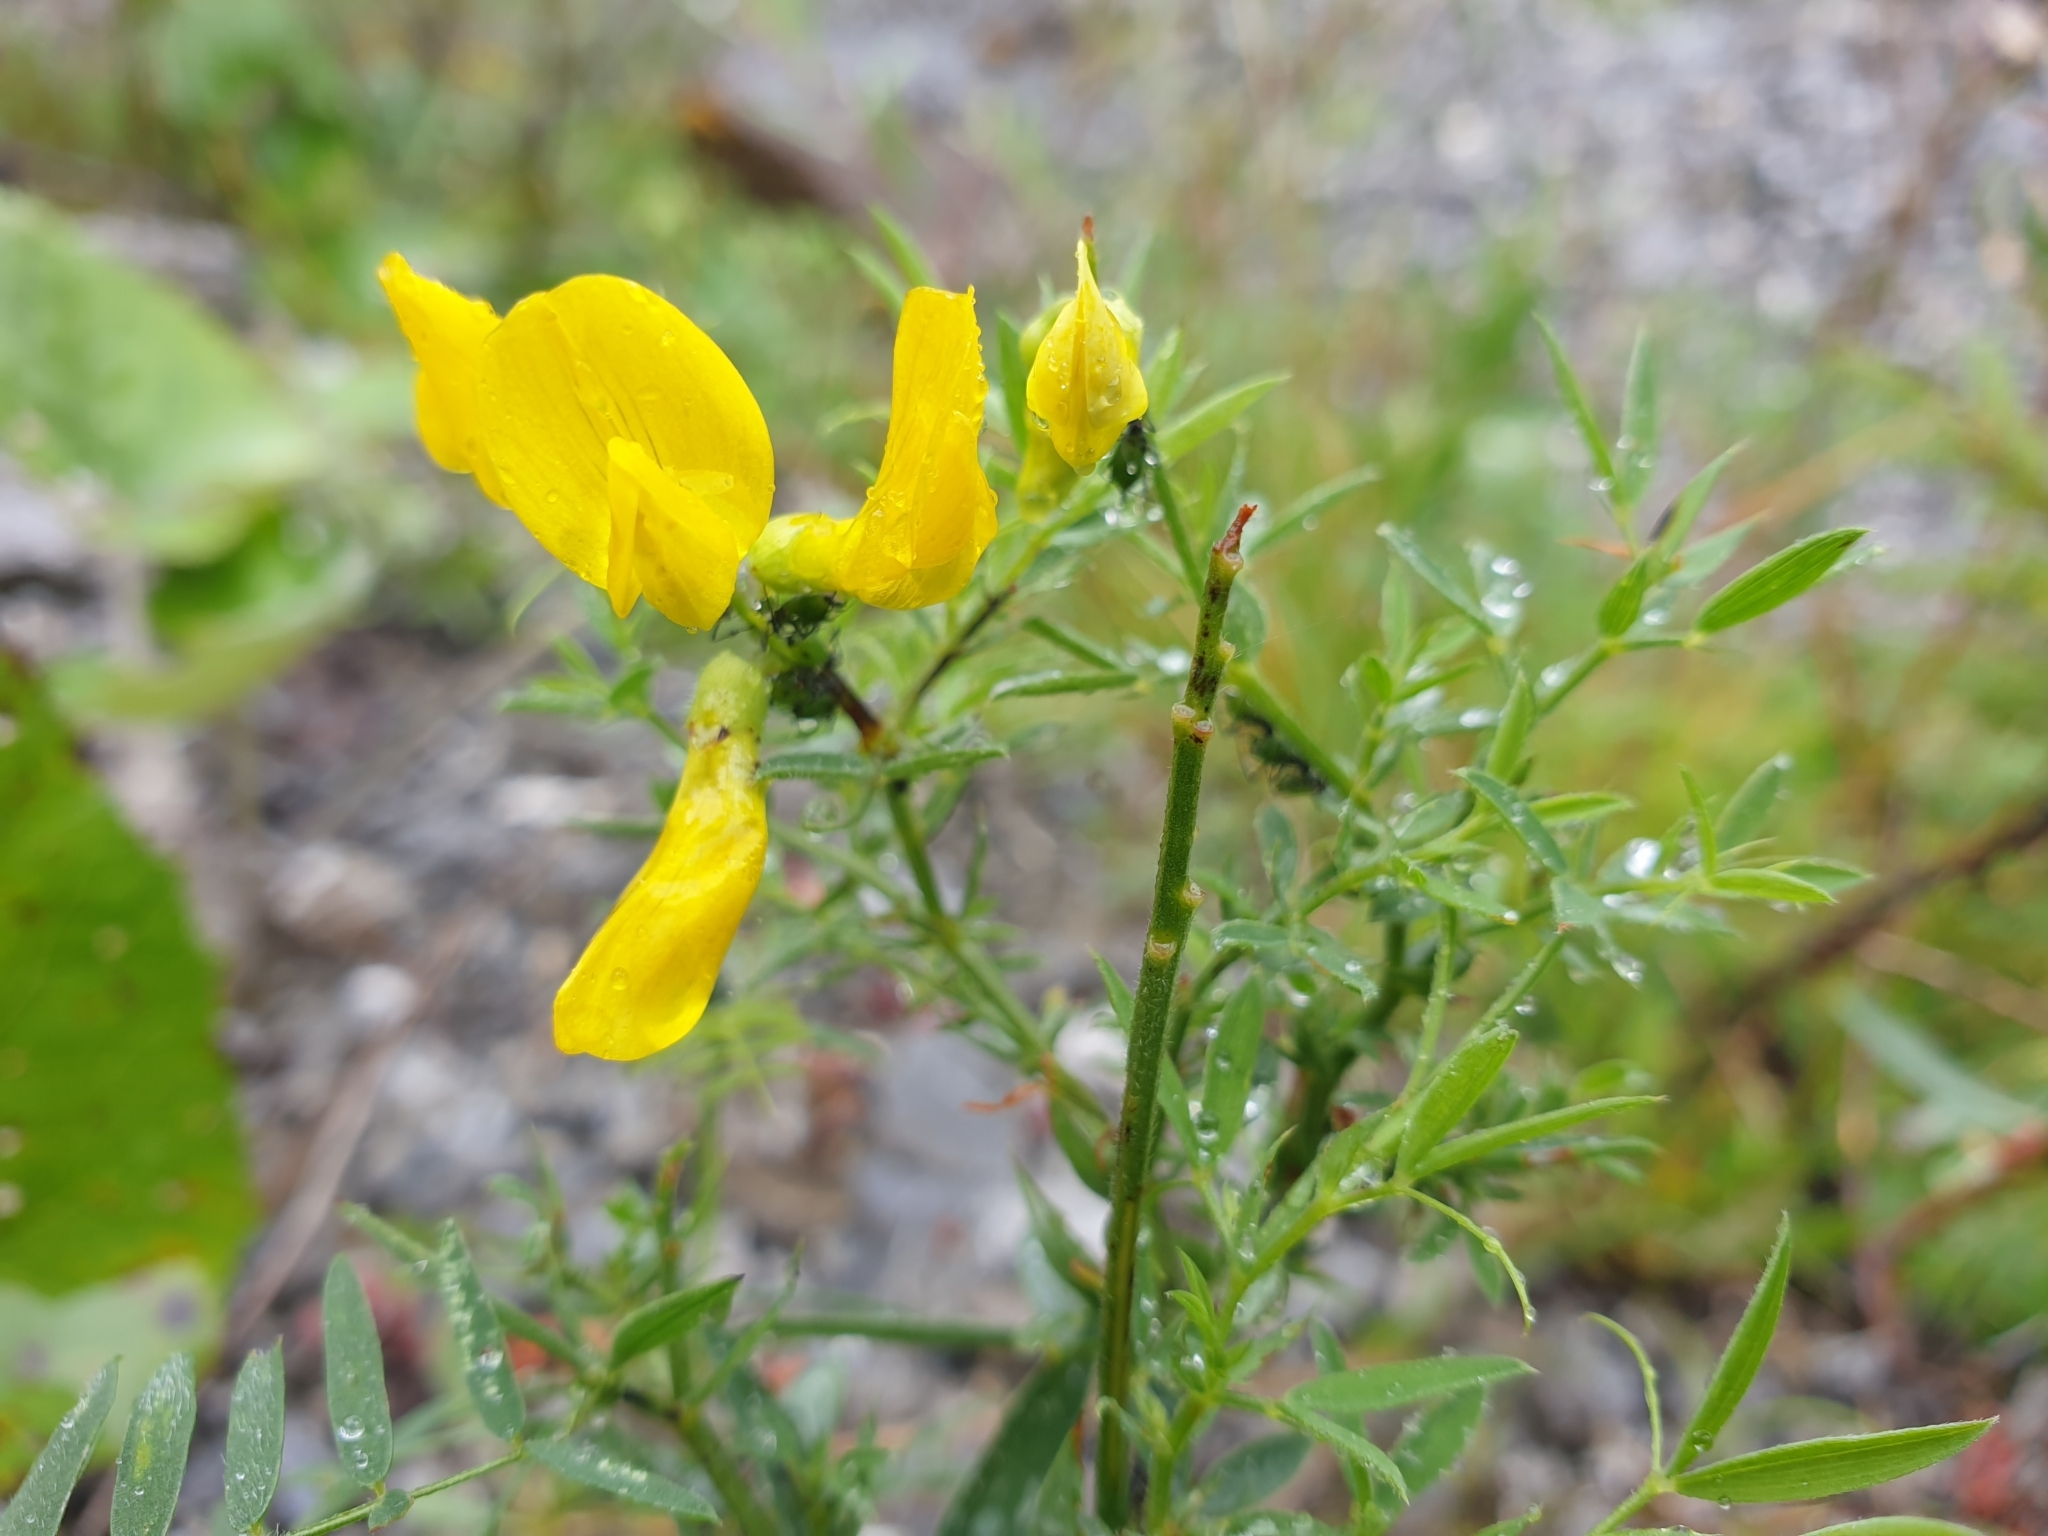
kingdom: Plantae
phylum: Tracheophyta
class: Magnoliopsida
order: Fabales
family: Fabaceae
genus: Lathyrus
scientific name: Lathyrus pratensis
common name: Meadow vetchling
